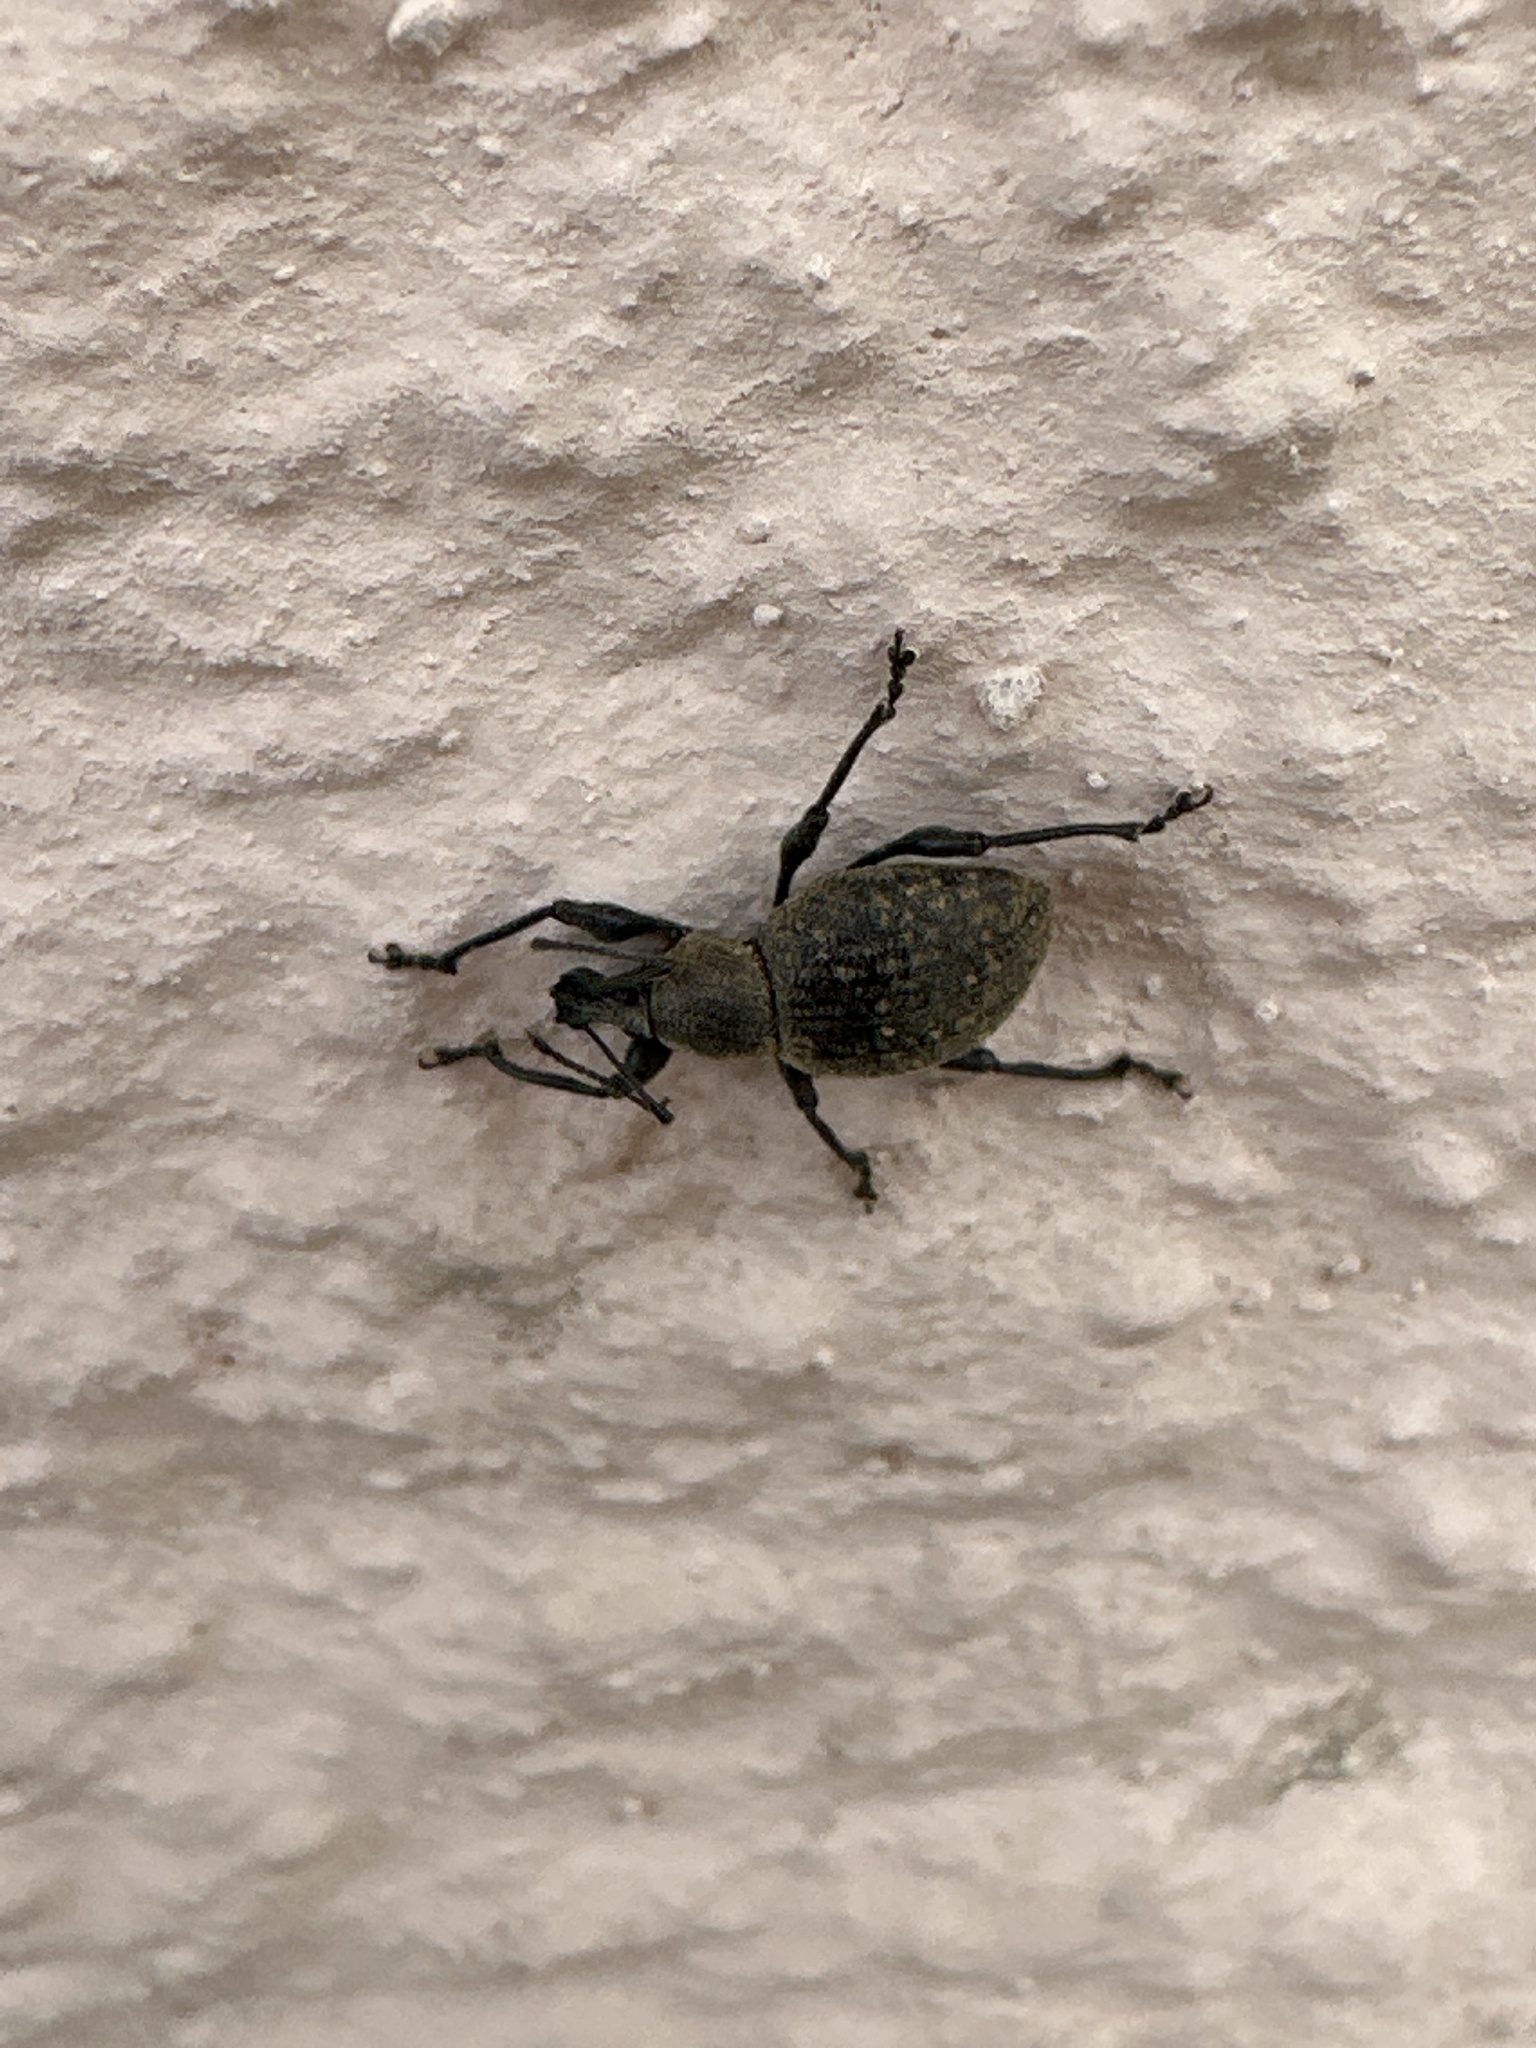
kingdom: Animalia
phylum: Arthropoda
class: Insecta
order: Coleoptera
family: Curculionidae
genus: Otiorhynchus
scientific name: Otiorhynchus armadillo
